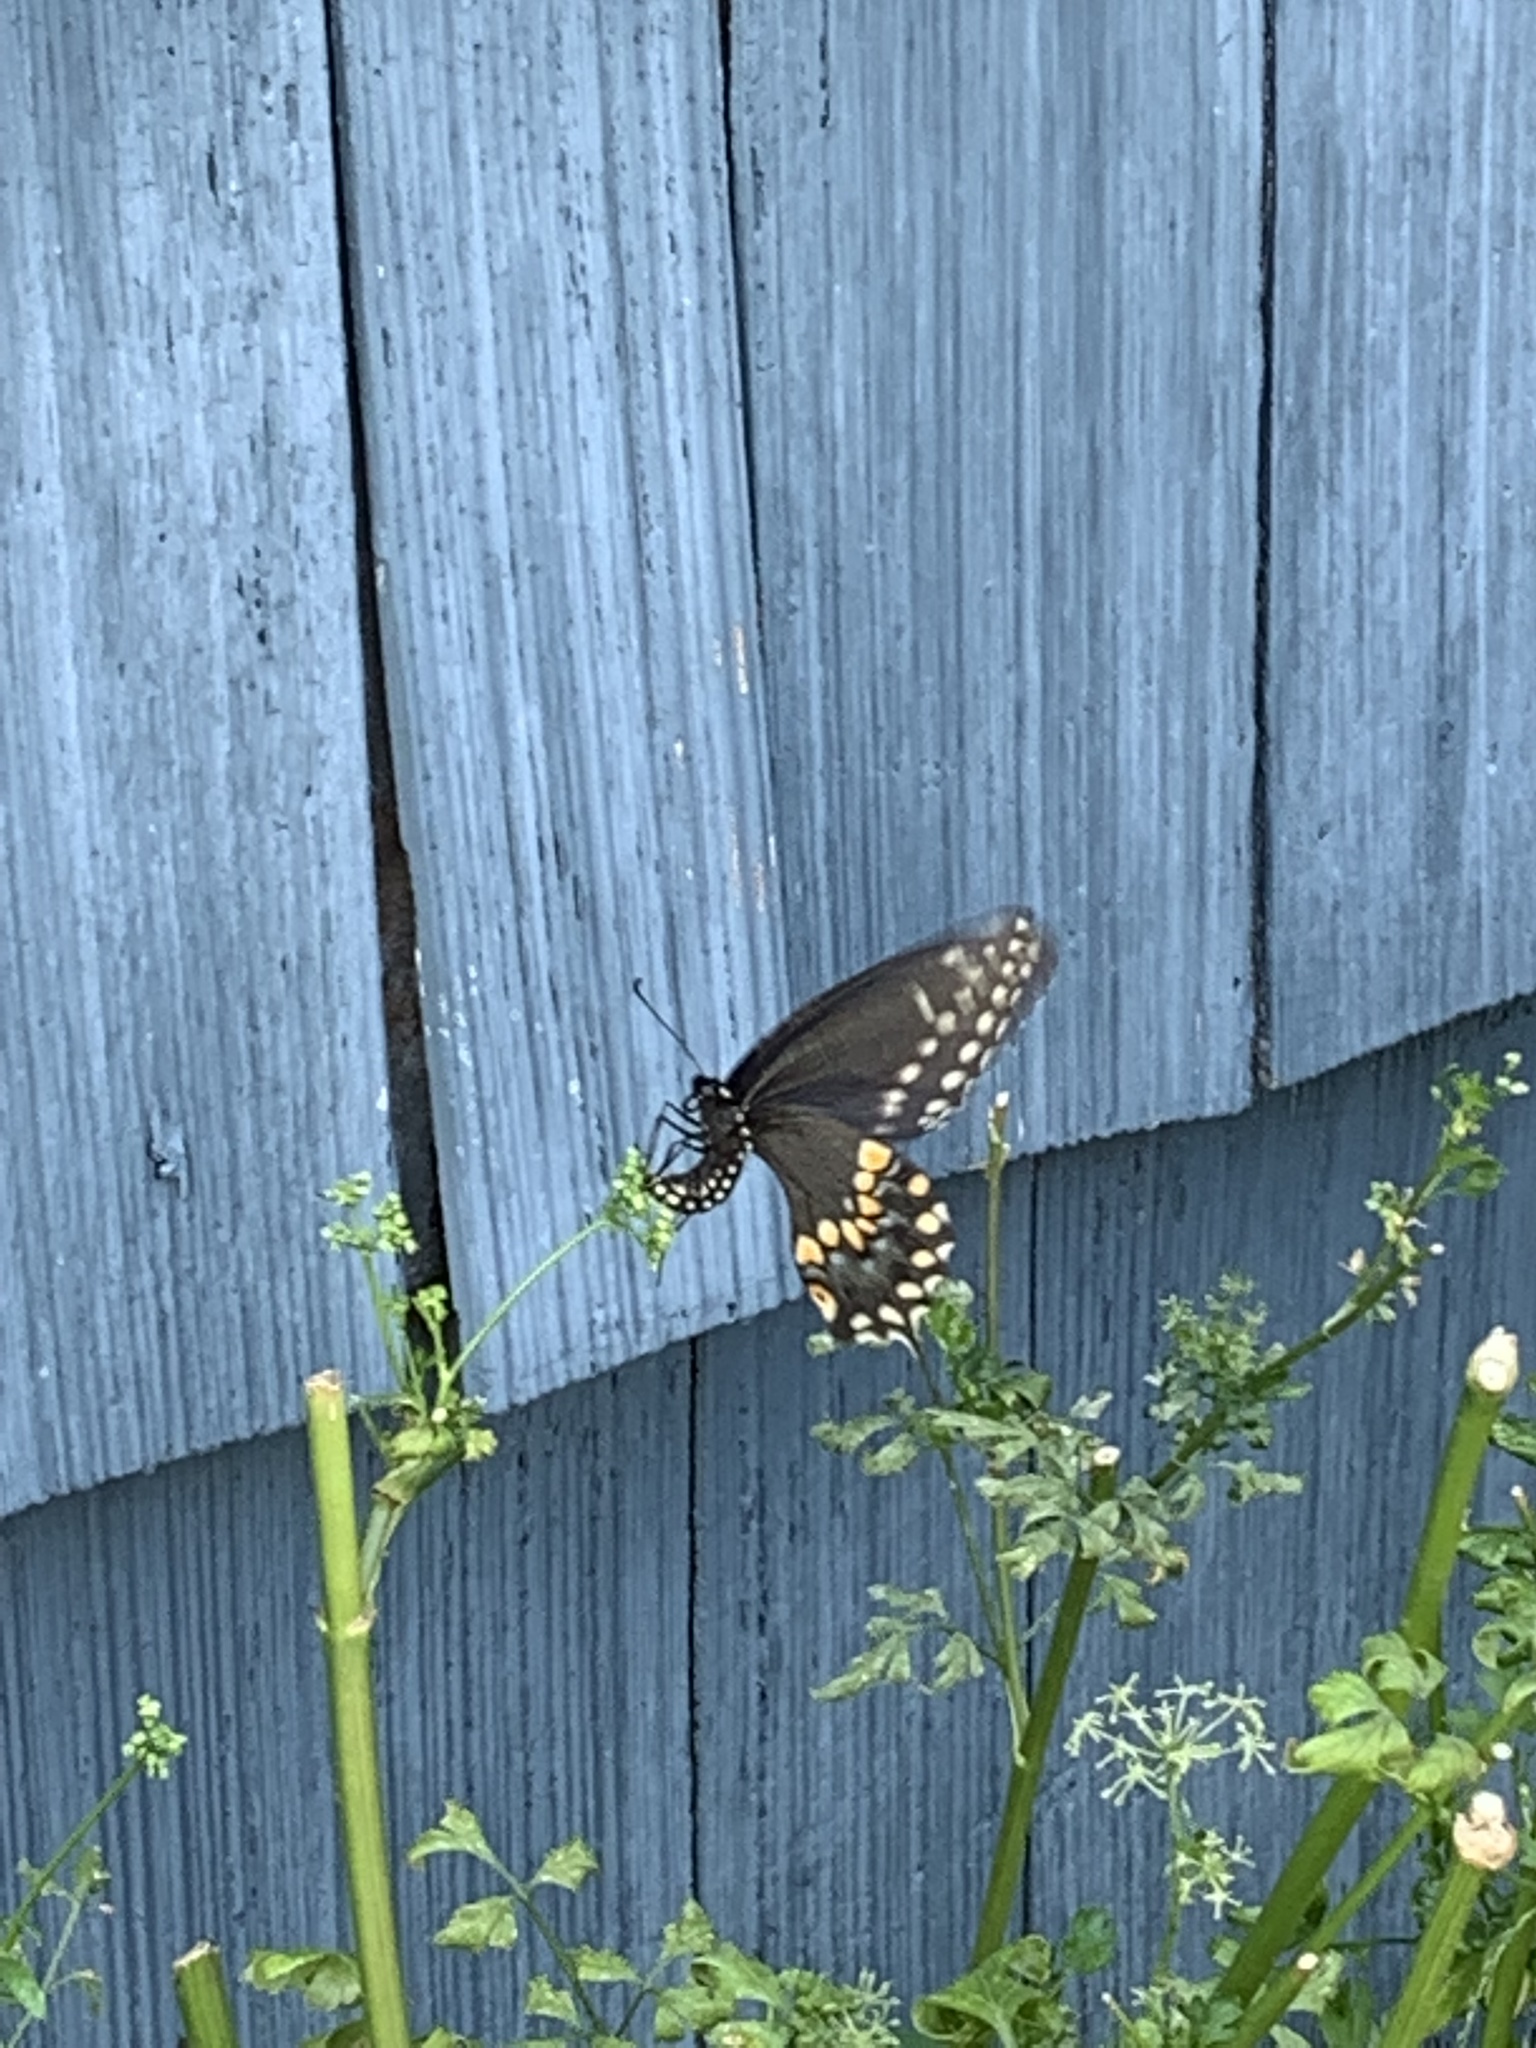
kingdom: Animalia
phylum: Arthropoda
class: Insecta
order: Lepidoptera
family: Papilionidae
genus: Papilio
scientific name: Papilio polyxenes
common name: Black swallowtail
